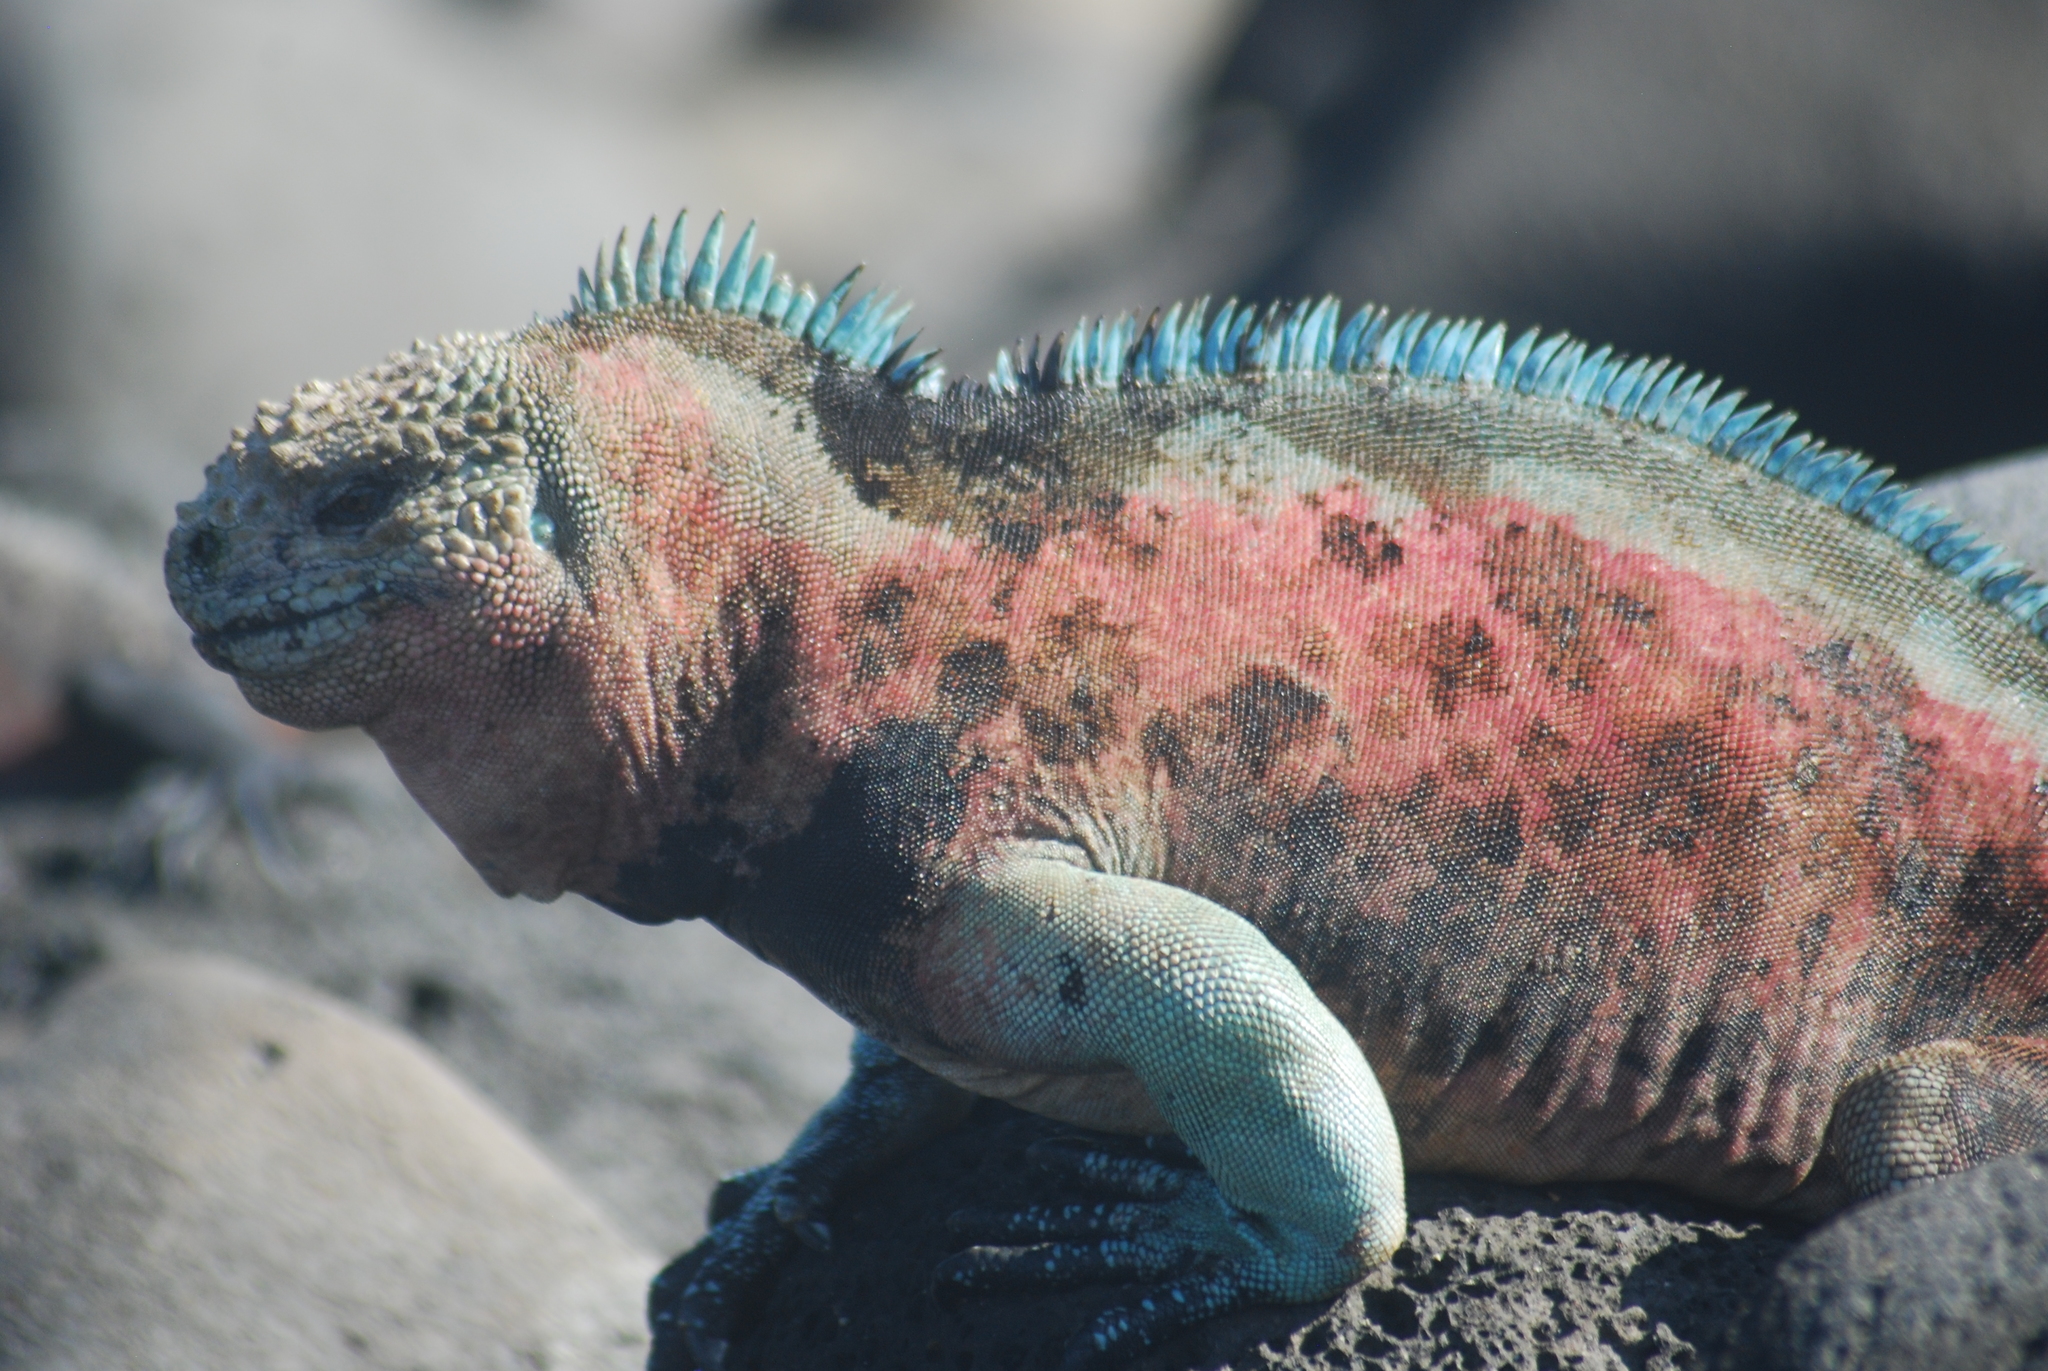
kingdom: Animalia
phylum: Chordata
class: Squamata
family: Iguanidae
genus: Amblyrhynchus
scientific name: Amblyrhynchus cristatus
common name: Marine iguana
